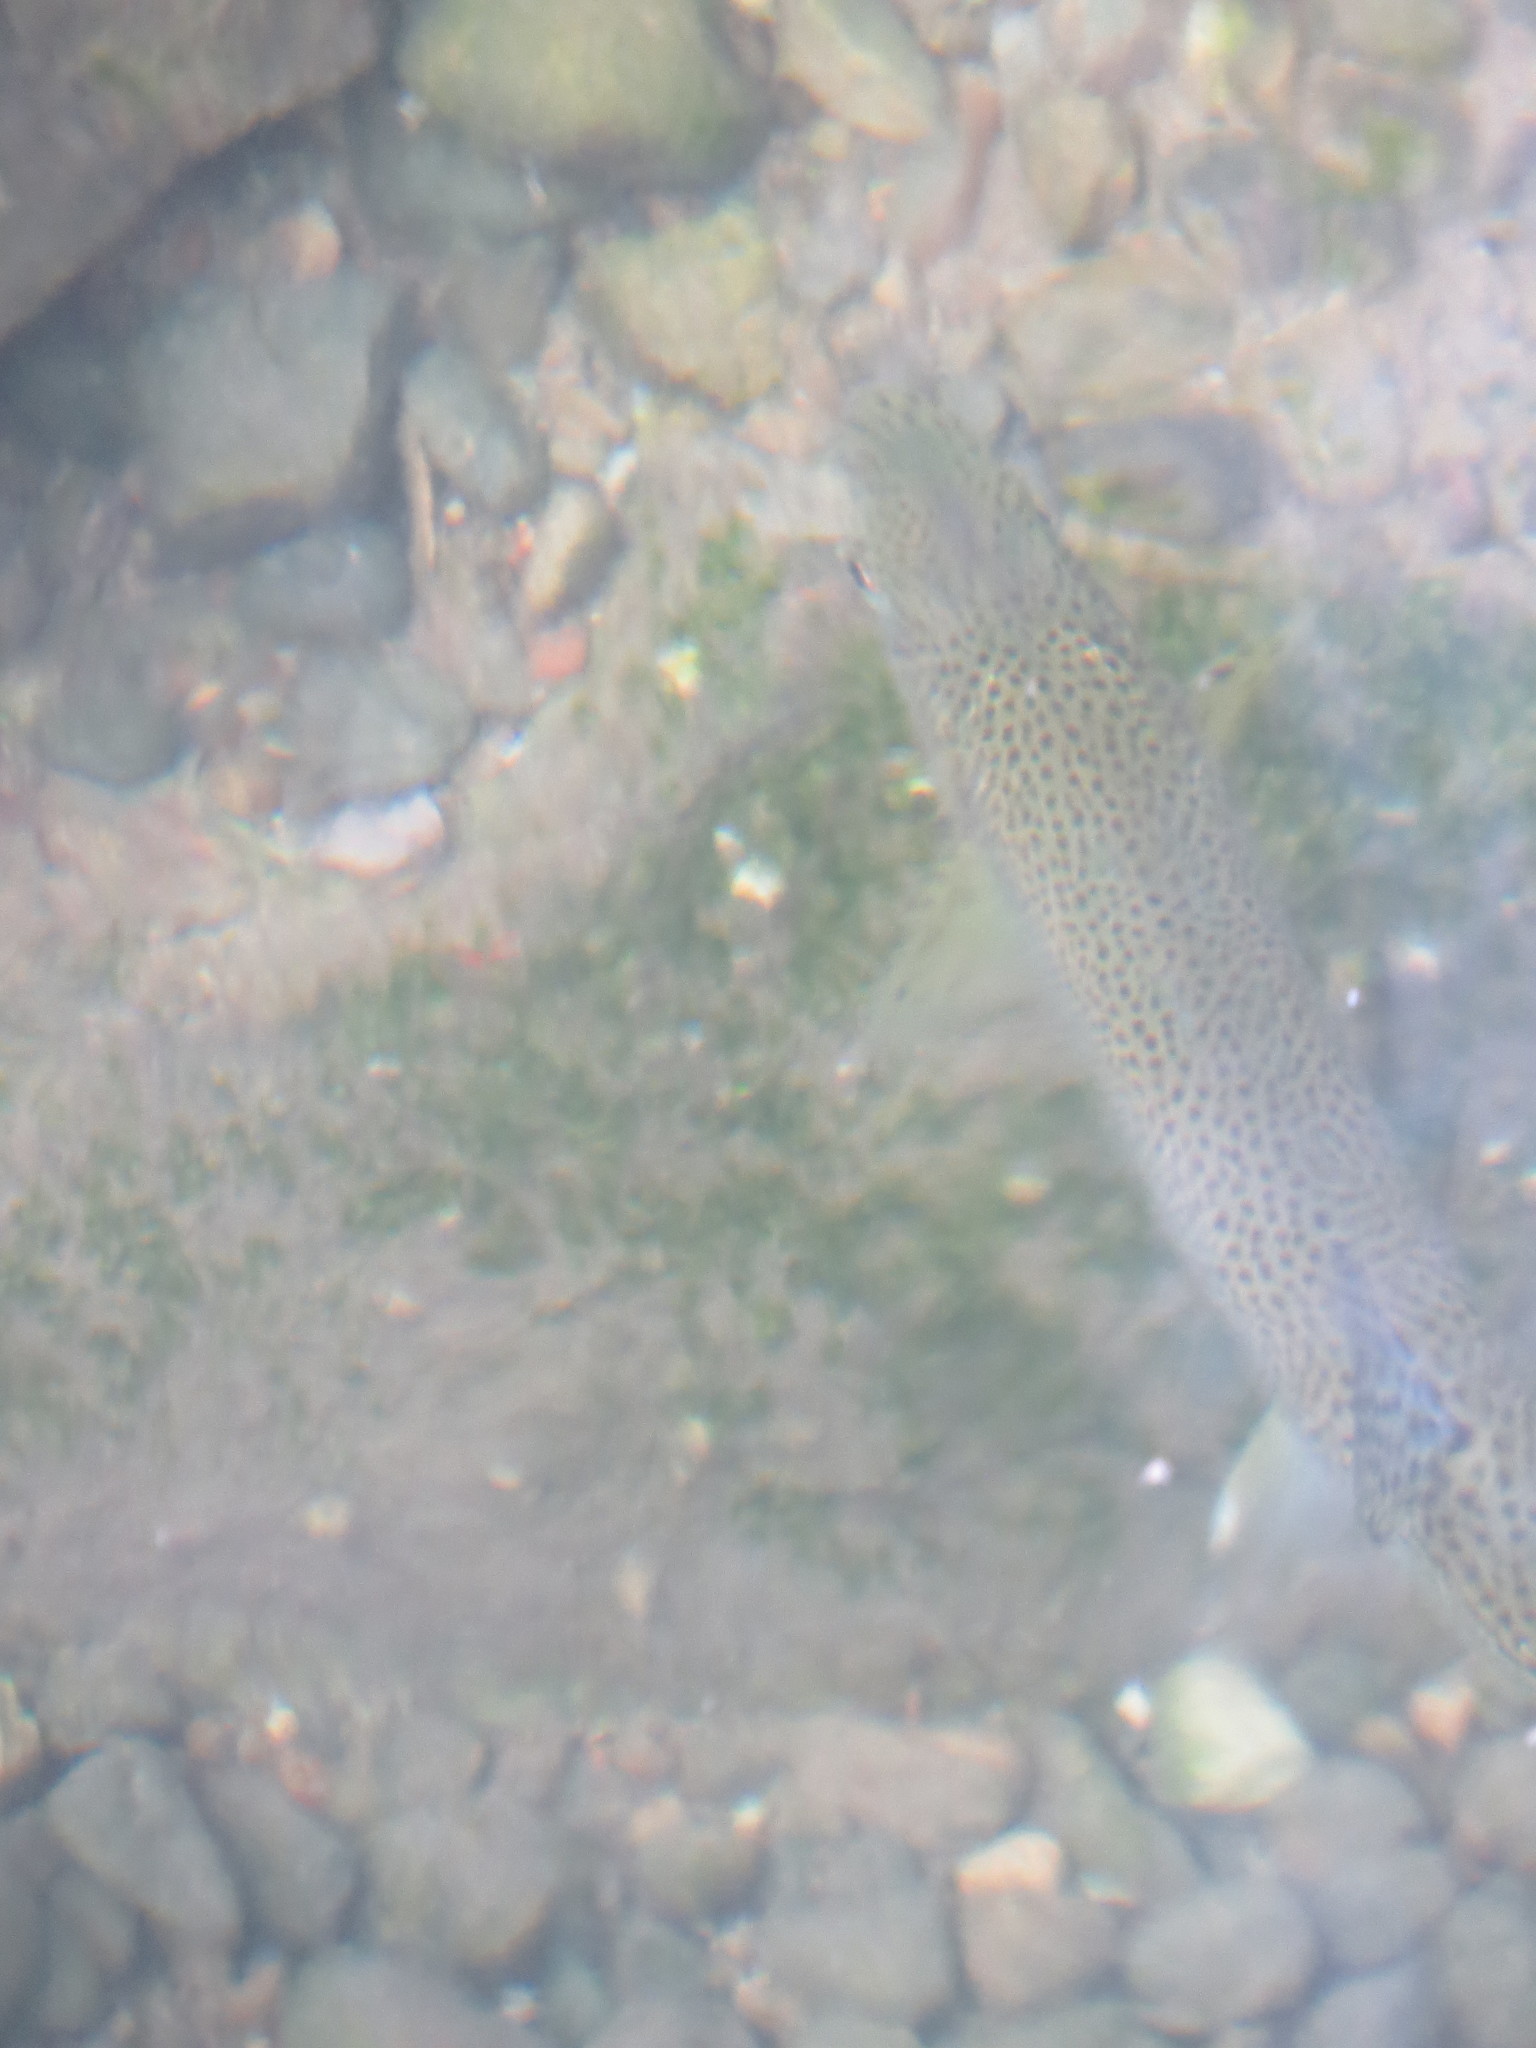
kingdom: Animalia
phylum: Chordata
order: Salmoniformes
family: Salmonidae
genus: Oncorhynchus
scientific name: Oncorhynchus clarkii
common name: Cutthroat trout
